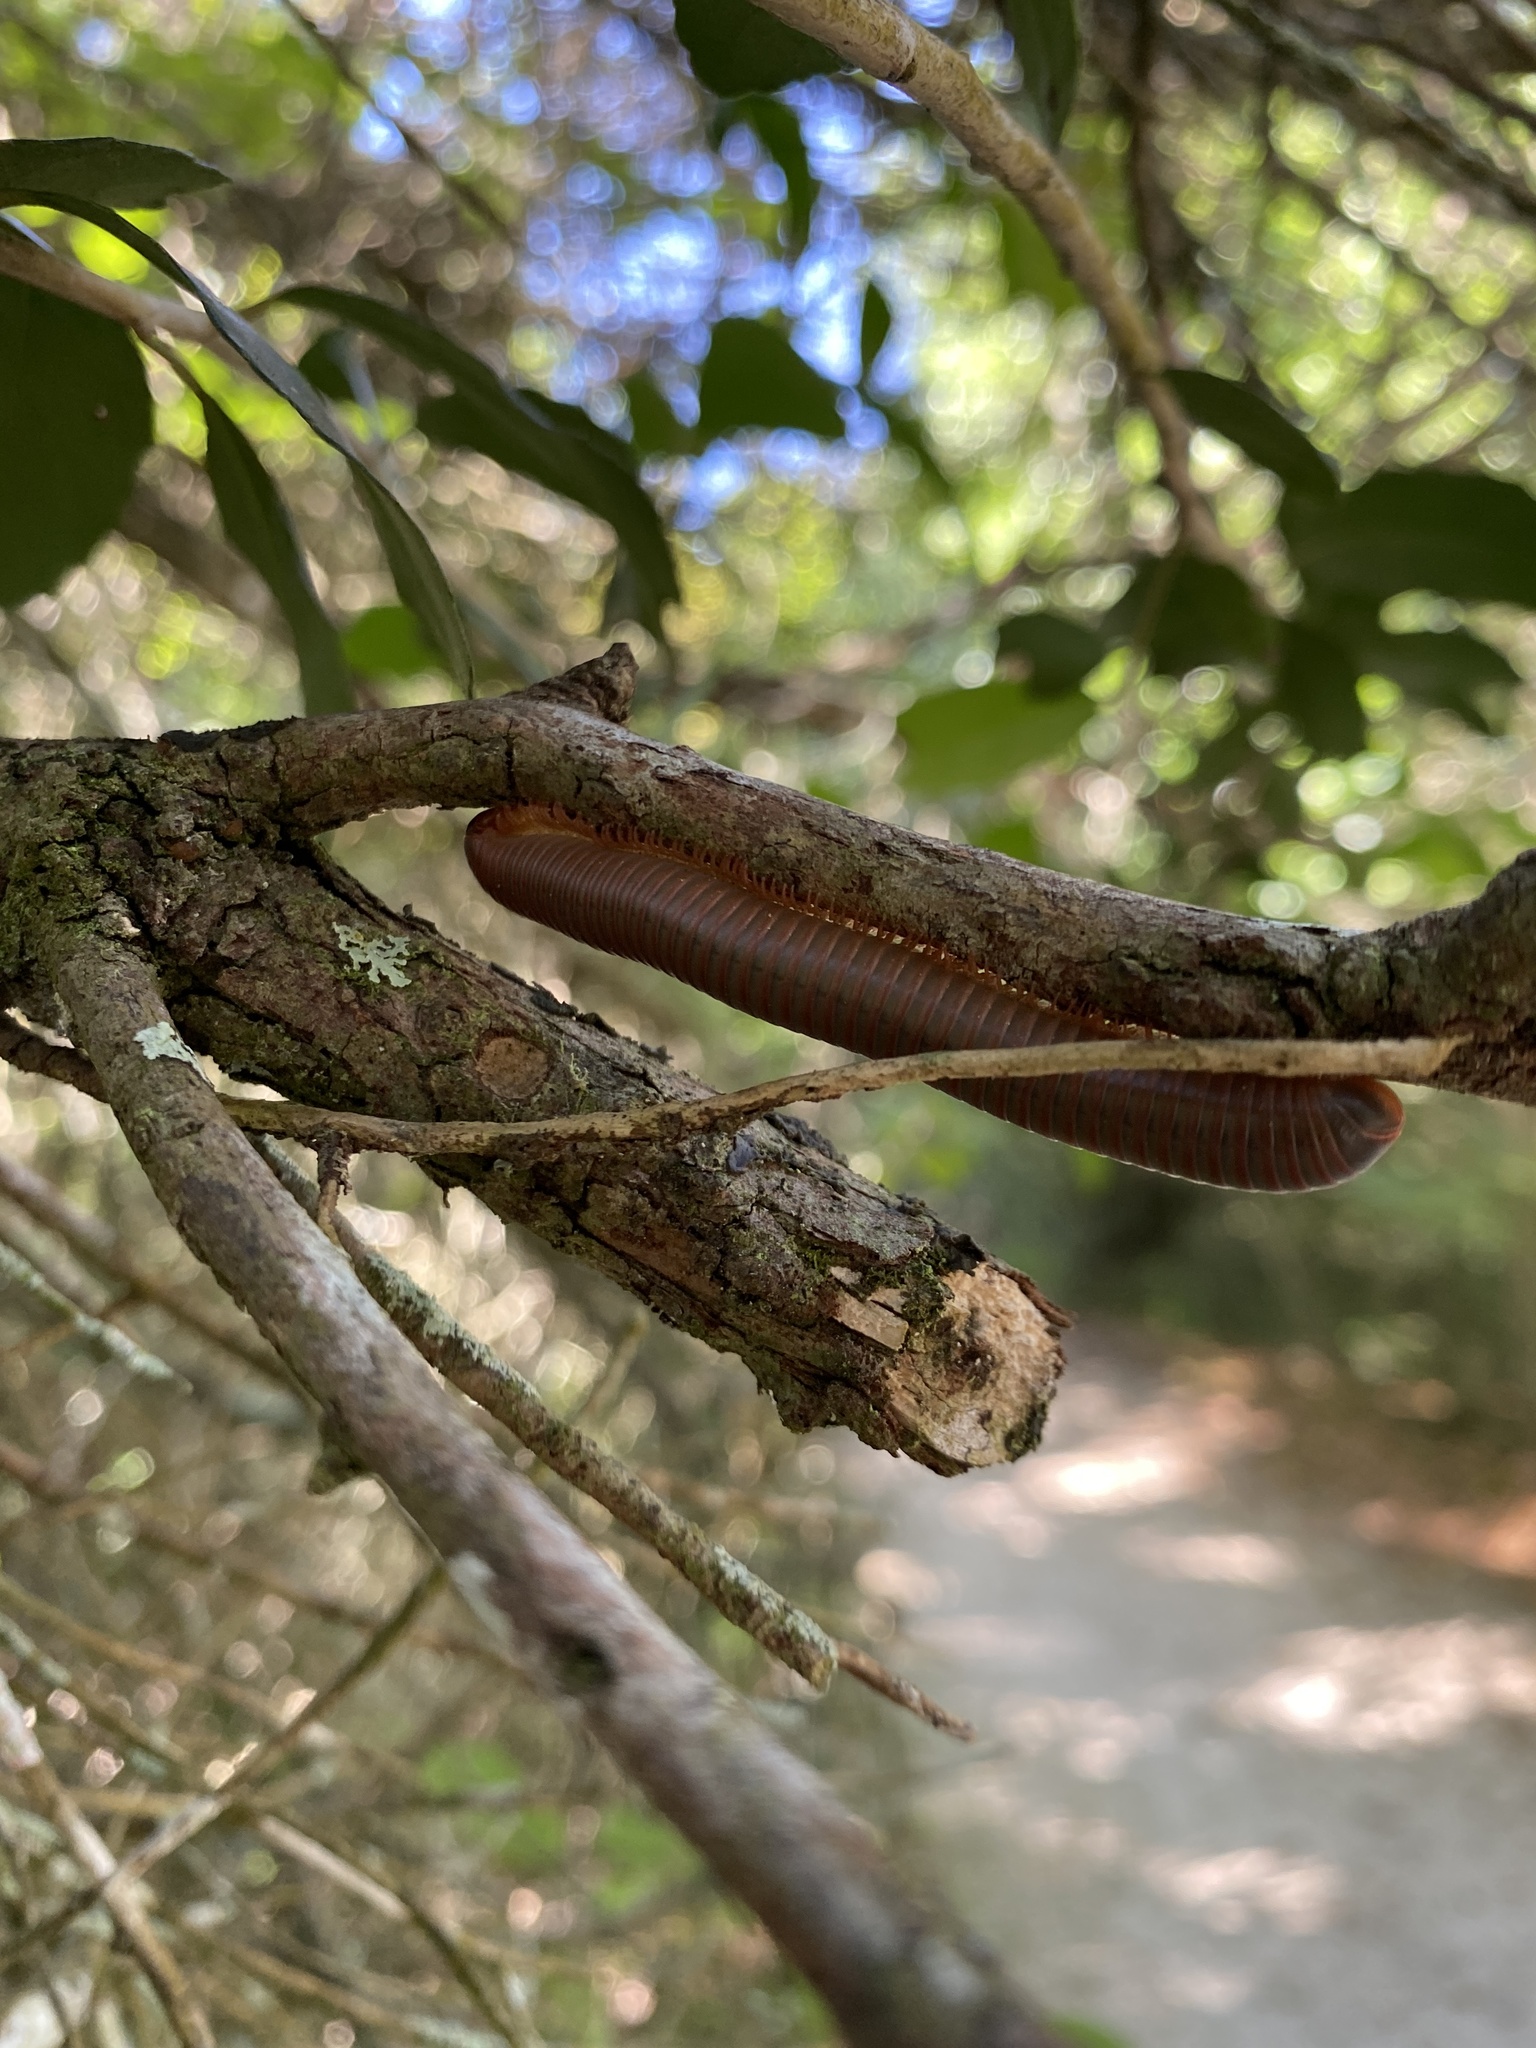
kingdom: Animalia
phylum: Arthropoda
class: Diplopoda
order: Spirobolida
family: Spirobolidae
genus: Narceus
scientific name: Narceus gordanus
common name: Grayish-green millipede
